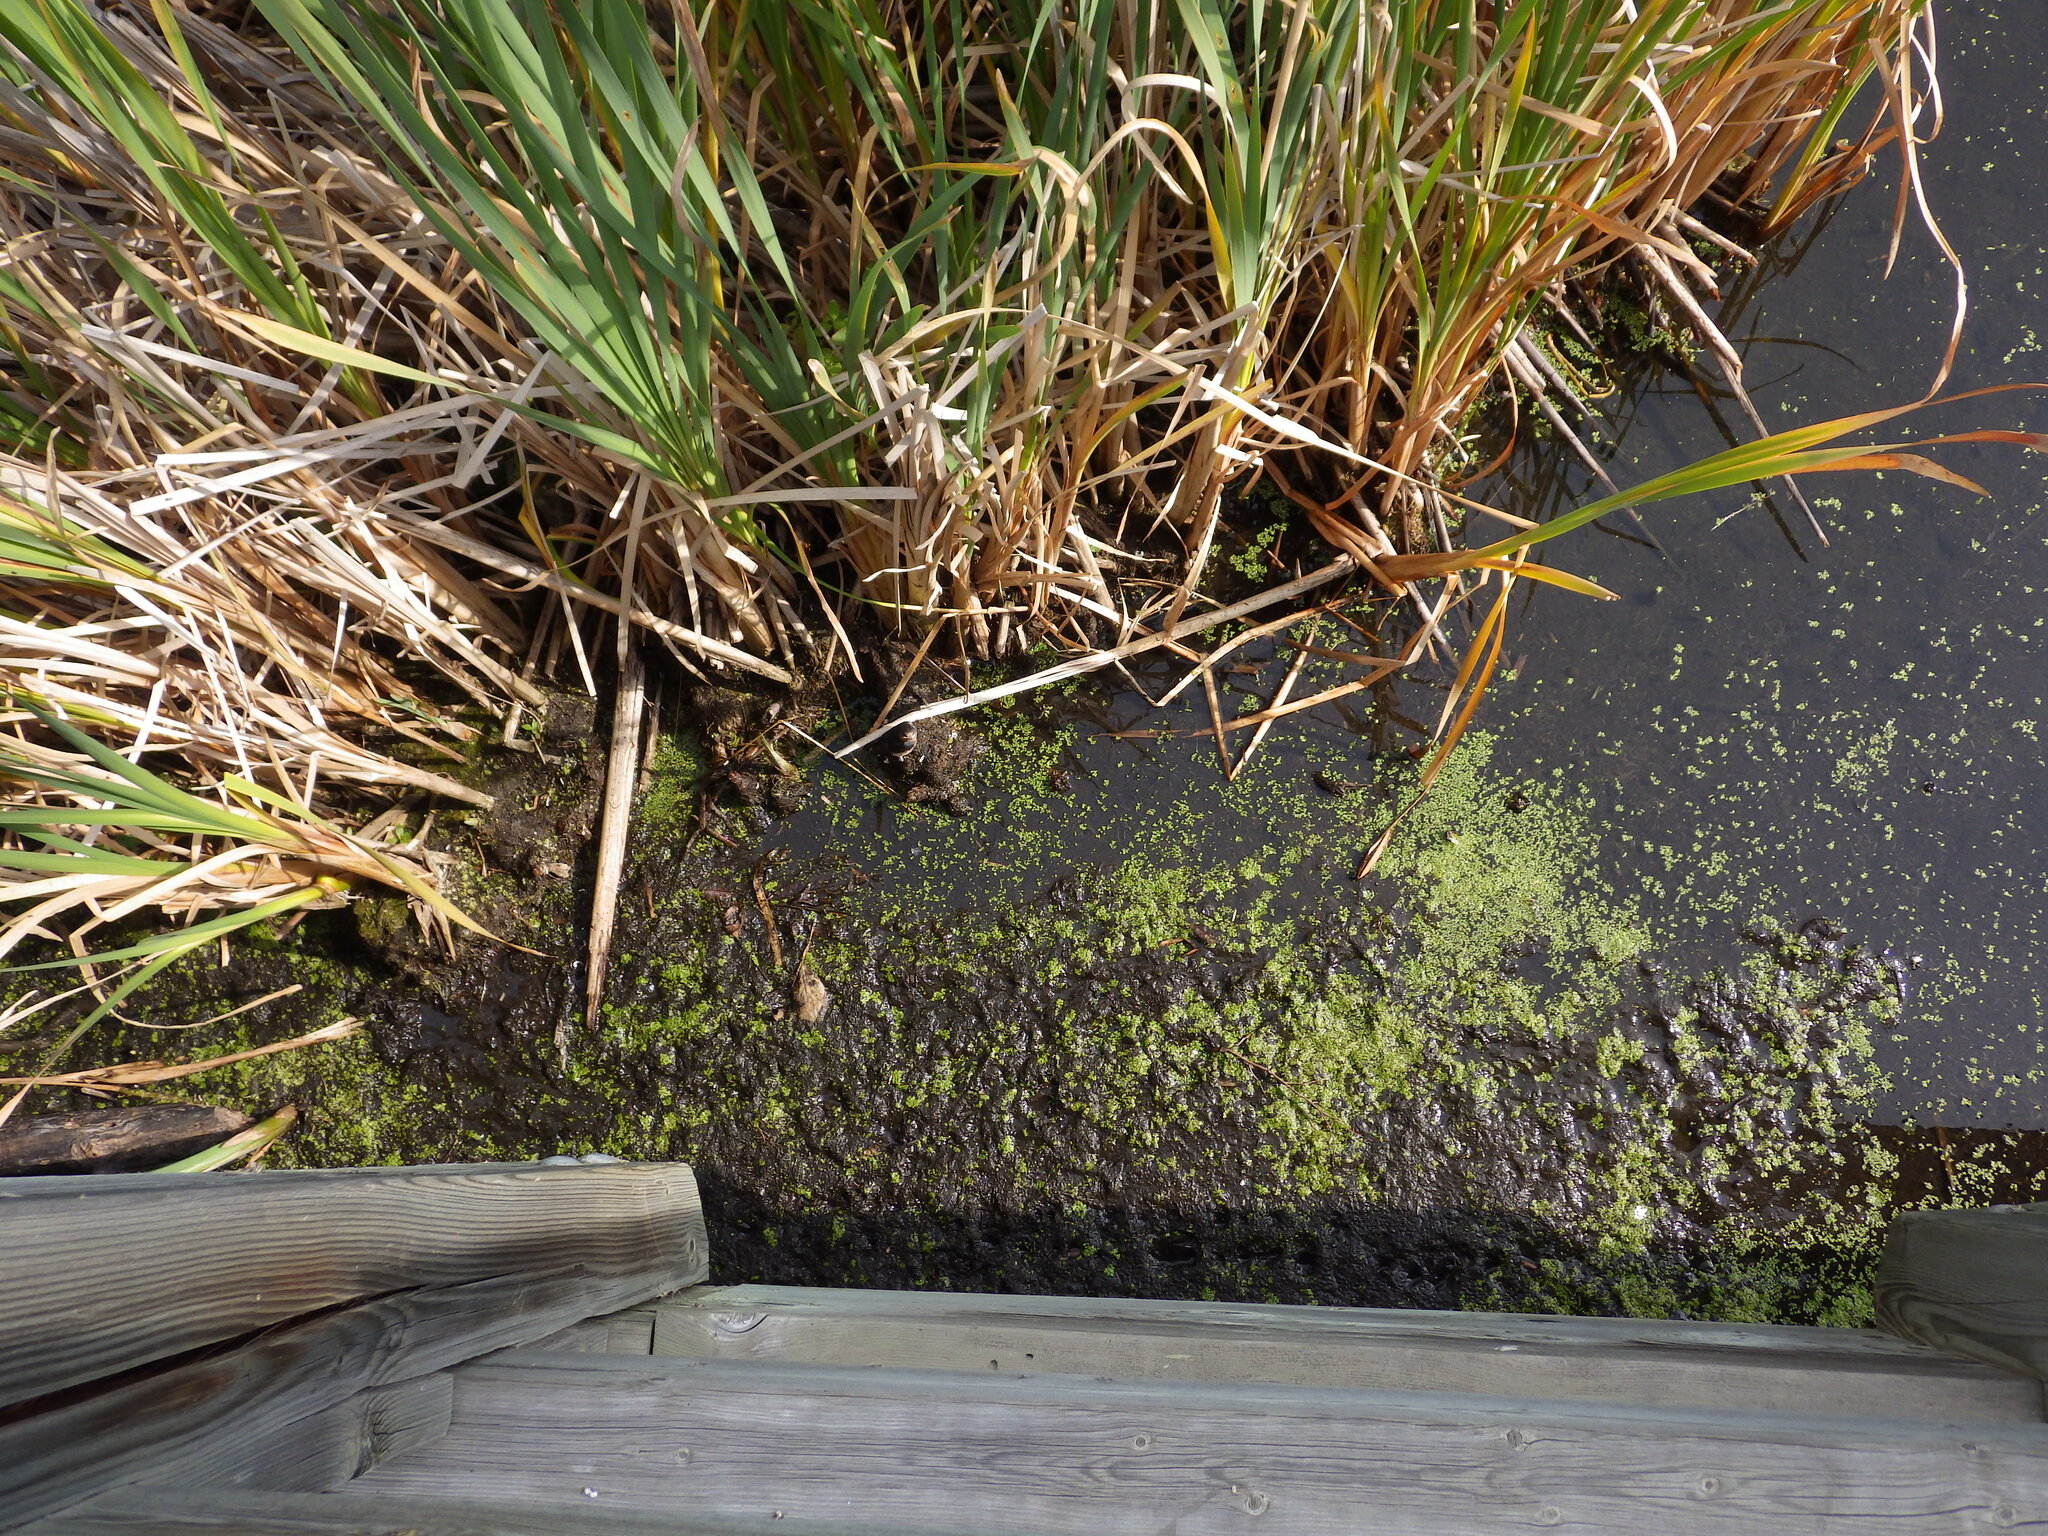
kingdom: Animalia
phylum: Chordata
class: Aves
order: Passeriformes
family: Hirundinidae
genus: Hirundo
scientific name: Hirundo rustica
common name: Barn swallow
